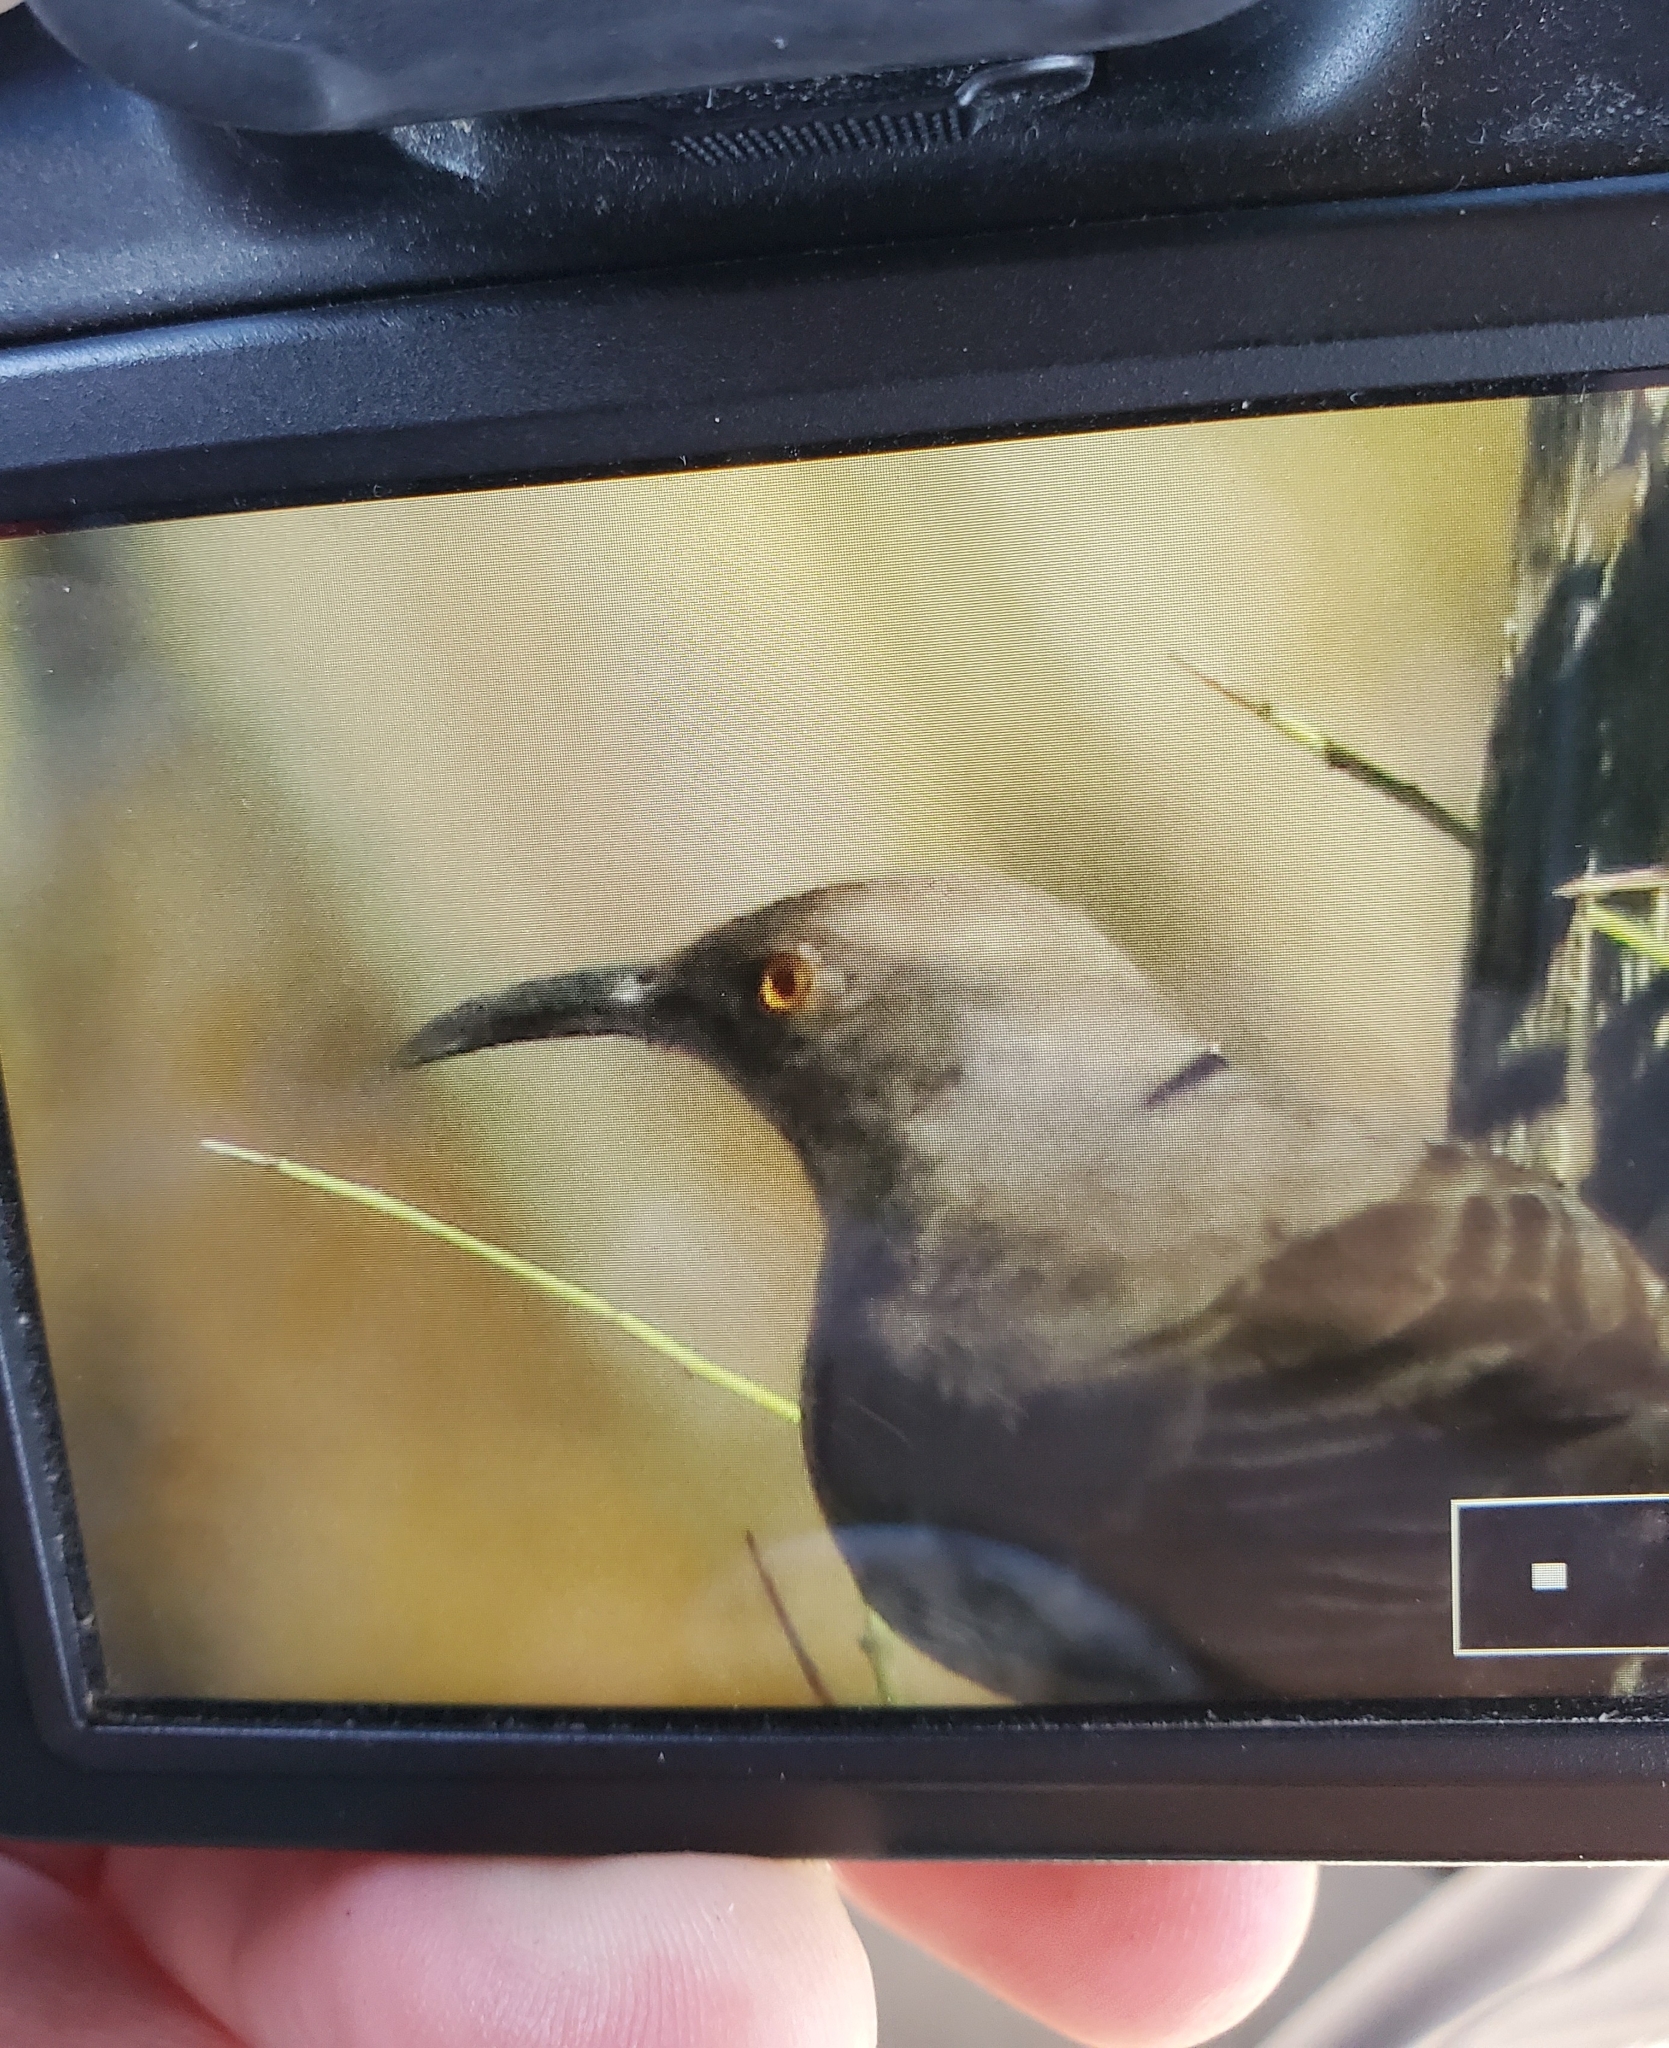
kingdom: Animalia
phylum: Chordata
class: Aves
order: Passeriformes
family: Mimidae
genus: Toxostoma
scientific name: Toxostoma curvirostre
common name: Curve-billed thrasher
